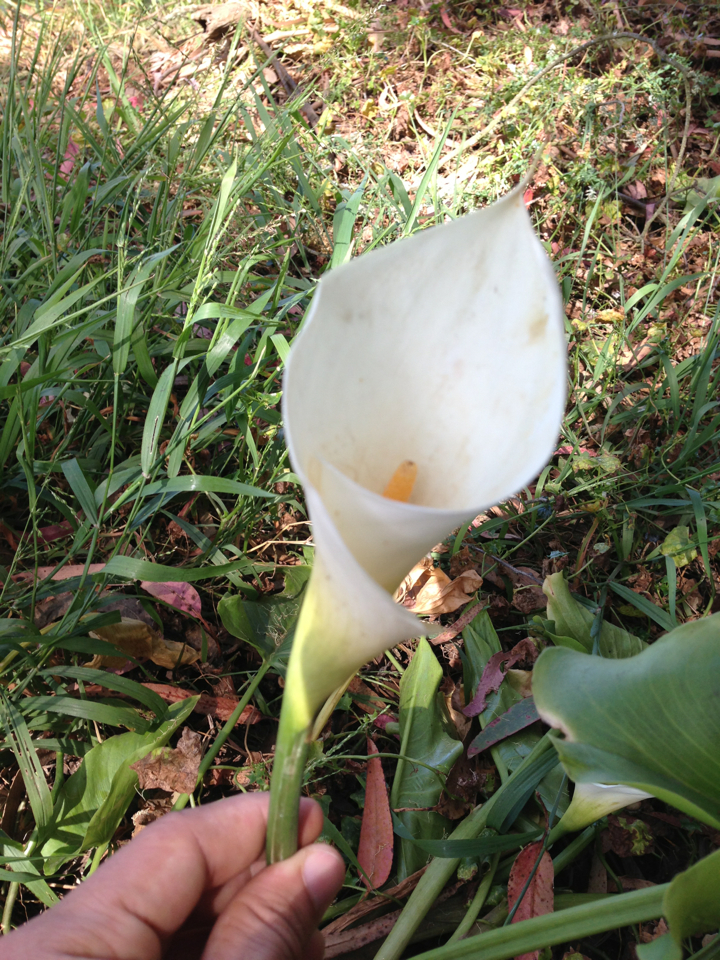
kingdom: Plantae
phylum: Tracheophyta
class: Liliopsida
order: Alismatales
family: Araceae
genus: Zantedeschia
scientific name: Zantedeschia aethiopica
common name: Altar-lily
